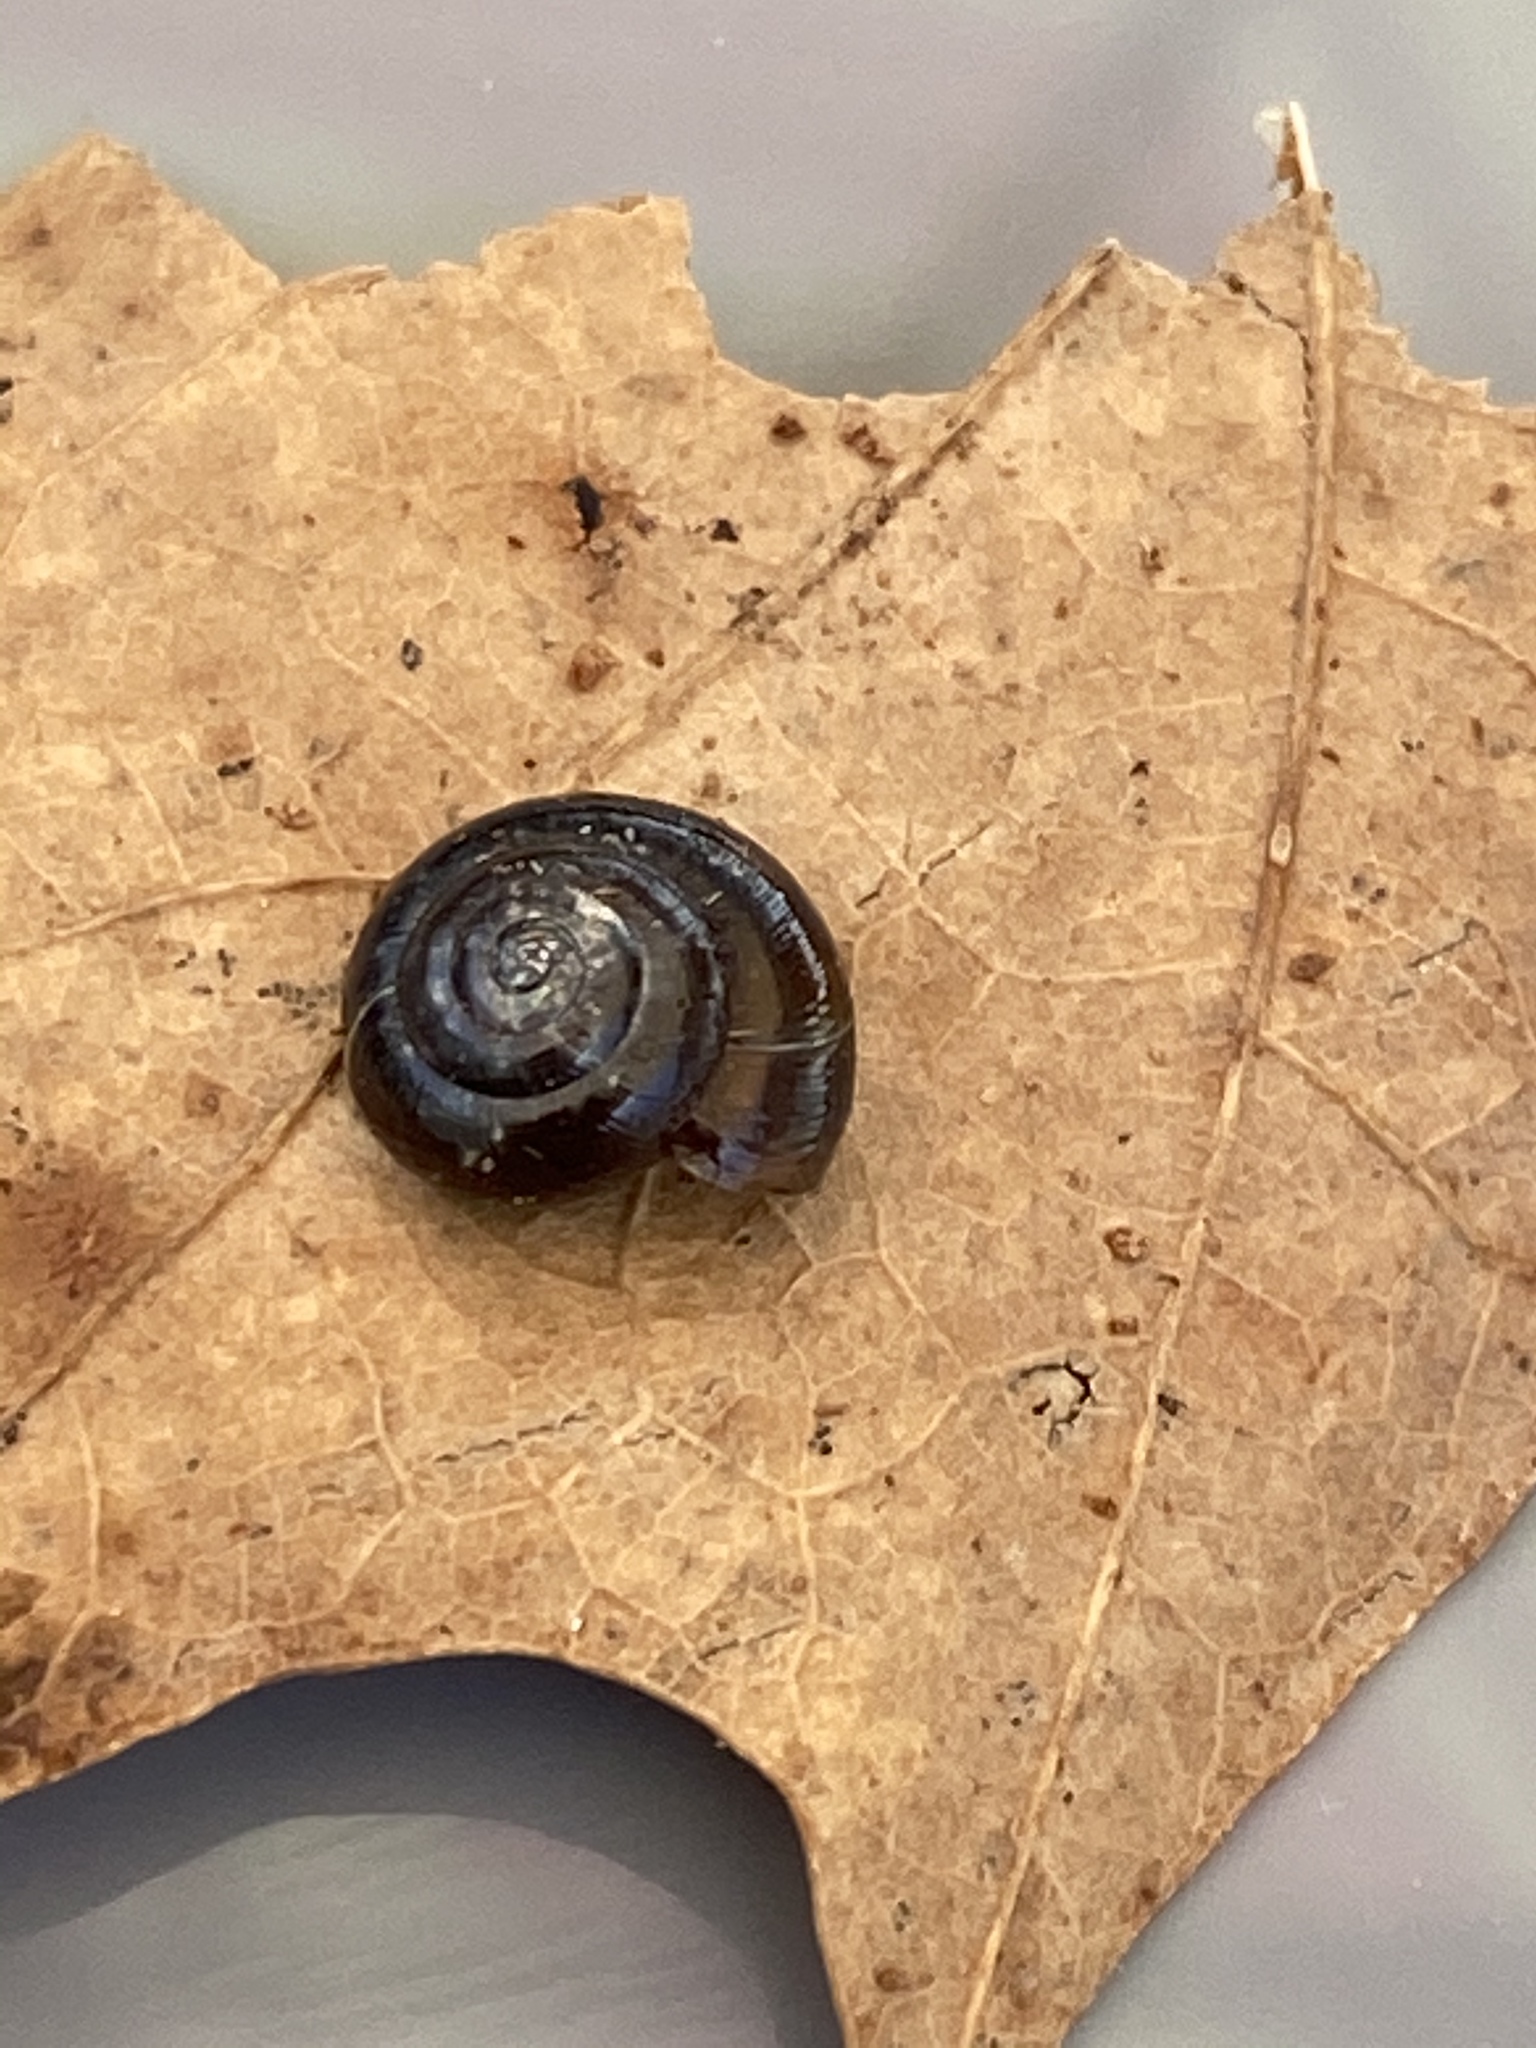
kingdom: Animalia
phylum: Mollusca
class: Gastropoda
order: Stylommatophora
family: Gastrodontidae
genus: Zonitoides
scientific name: Zonitoides nitidus
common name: Shiny glass snail
